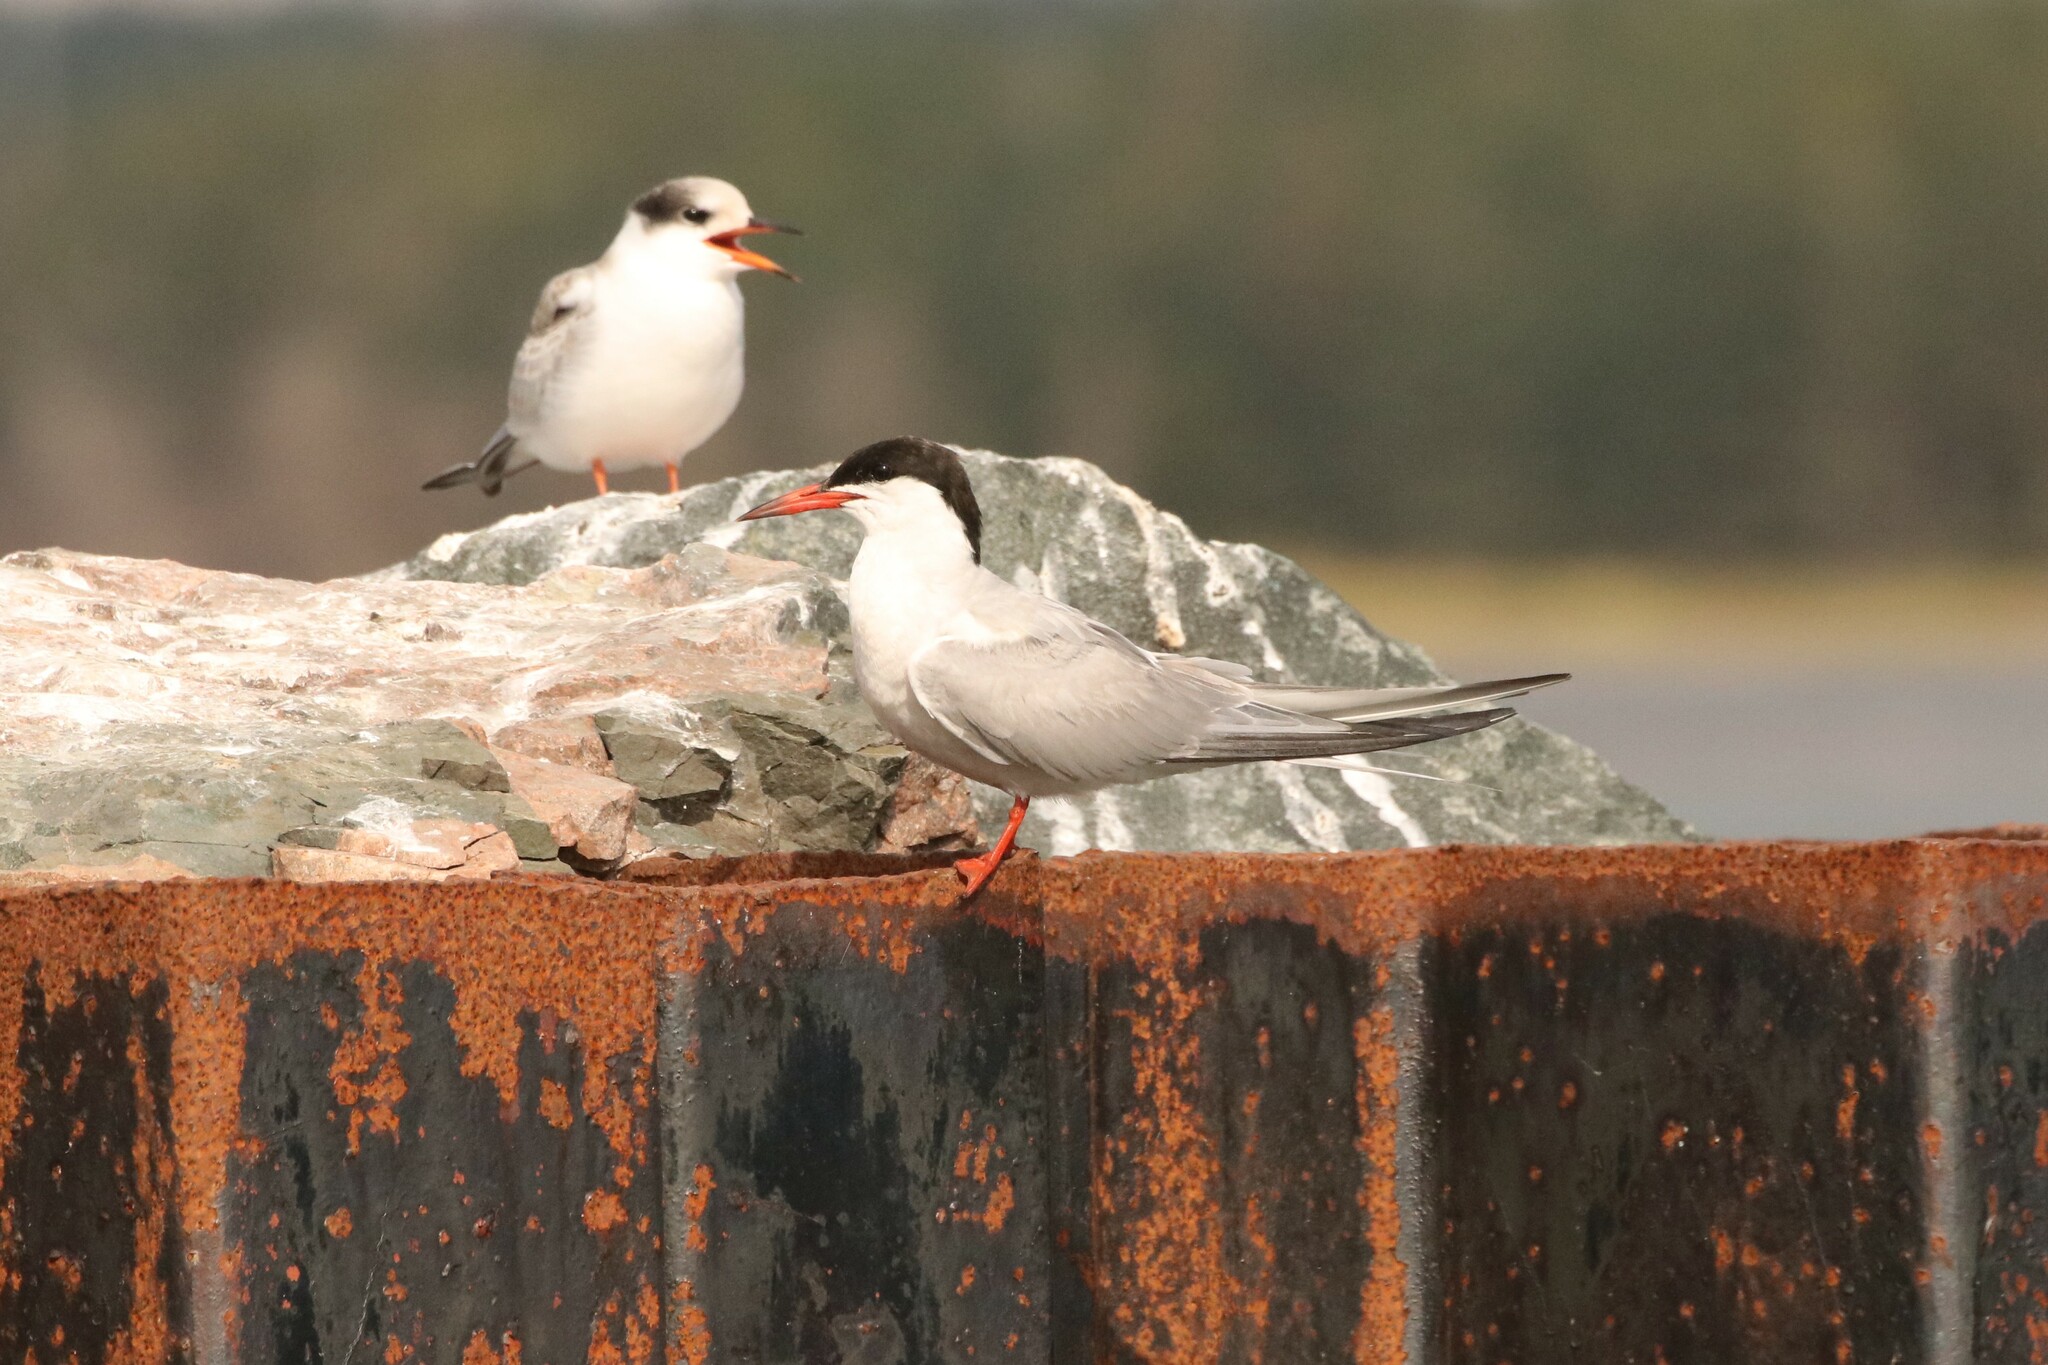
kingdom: Animalia
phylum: Chordata
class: Aves
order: Charadriiformes
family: Laridae
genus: Sterna
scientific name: Sterna hirundo
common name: Common tern
